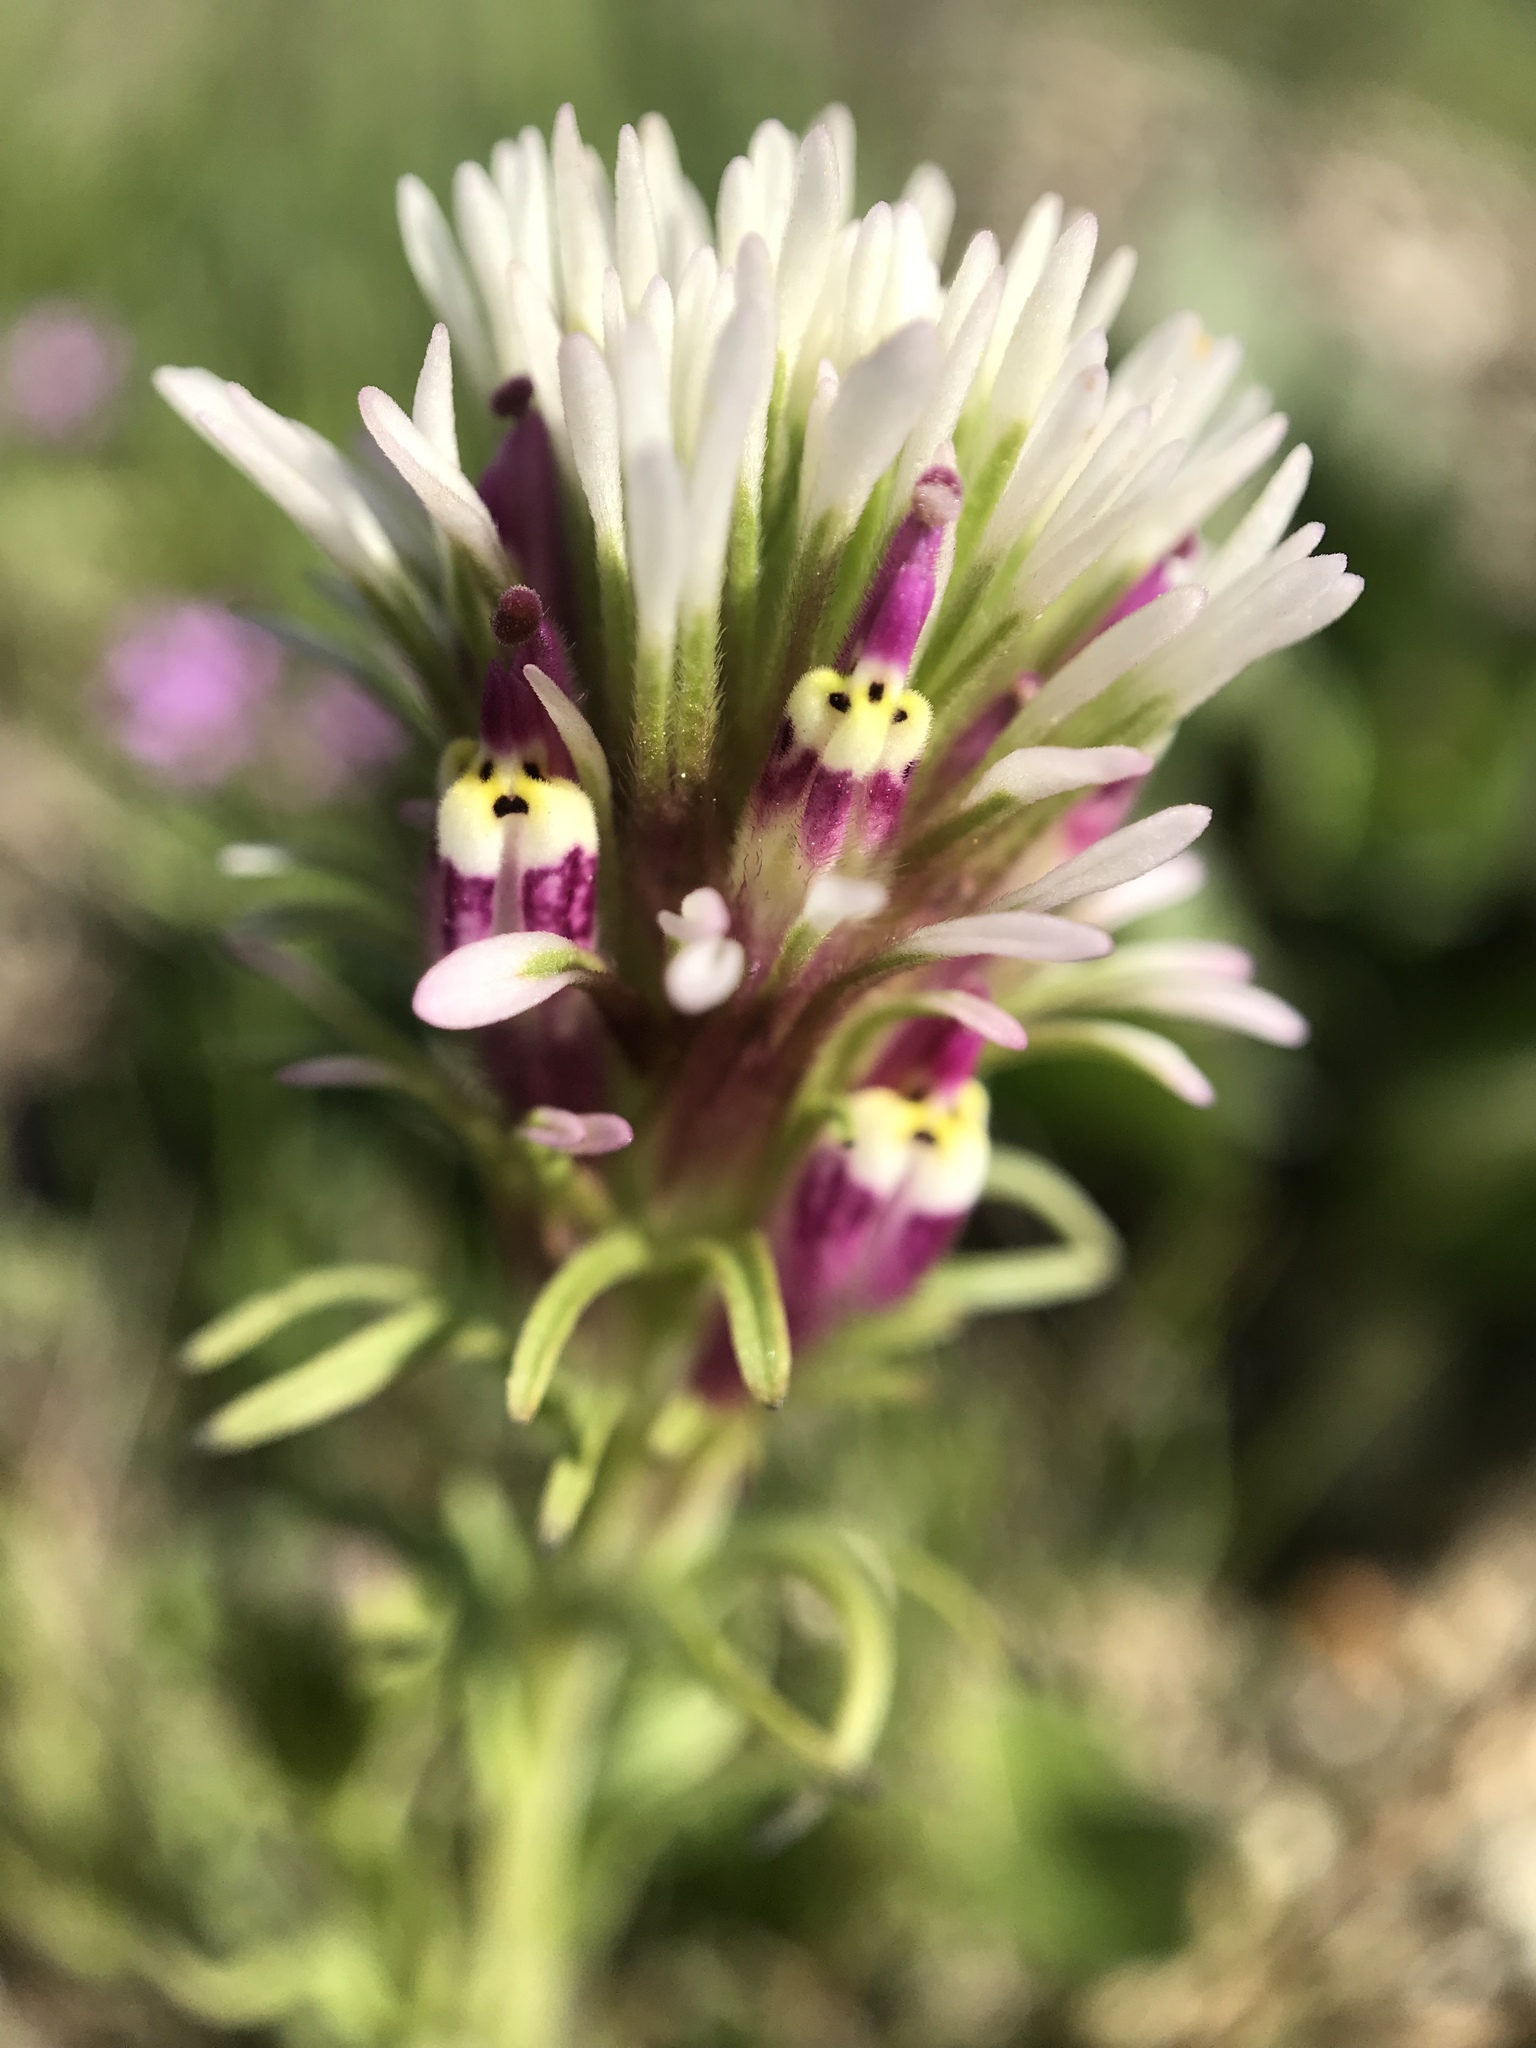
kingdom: Plantae
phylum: Tracheophyta
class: Magnoliopsida
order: Lamiales
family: Orobanchaceae
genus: Castilleja
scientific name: Castilleja densiflora
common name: Dense-flower indian paintbrush
